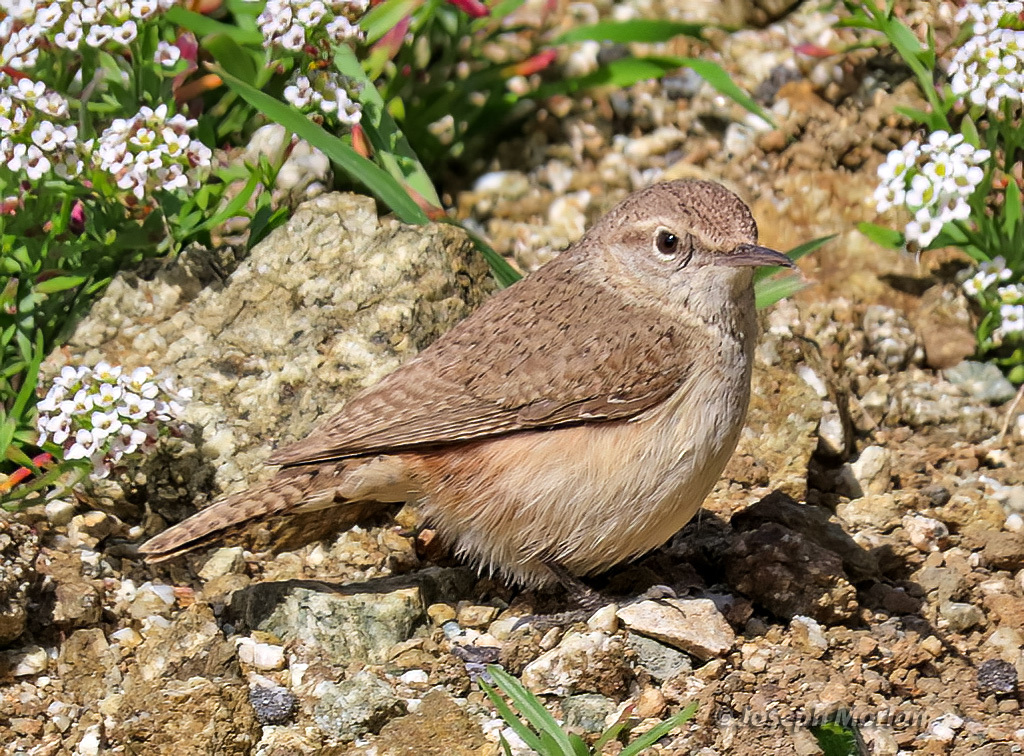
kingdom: Animalia
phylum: Chordata
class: Aves
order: Passeriformes
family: Troglodytidae
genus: Salpinctes
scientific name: Salpinctes obsoletus
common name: Rock wren
